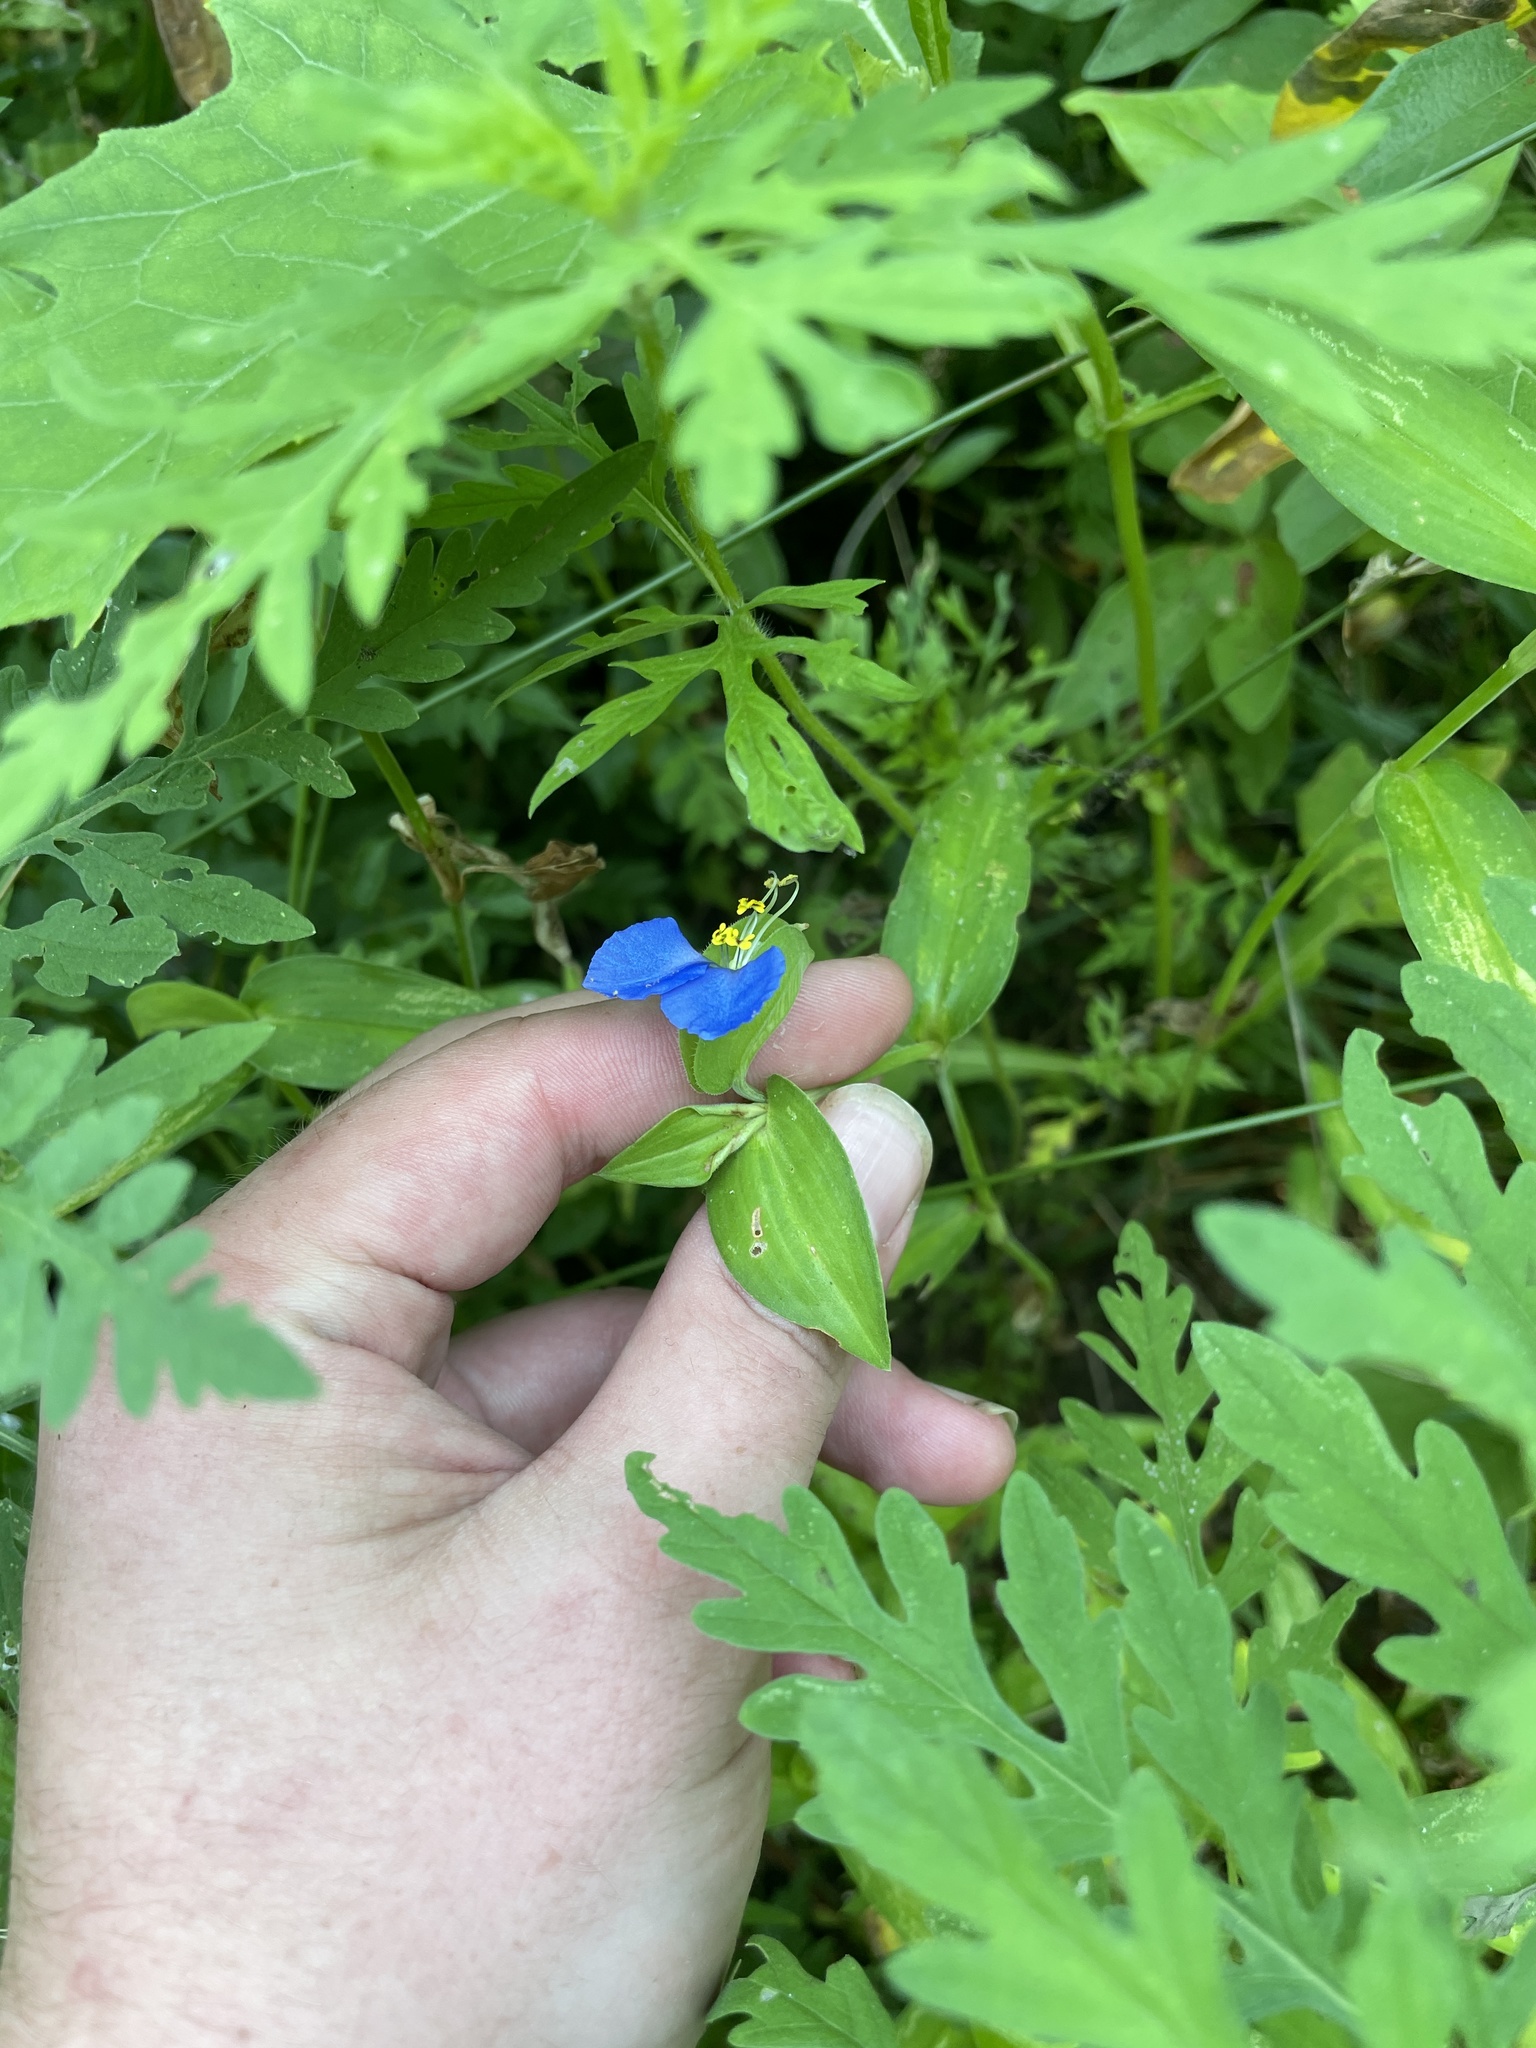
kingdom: Plantae
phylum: Tracheophyta
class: Liliopsida
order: Commelinales
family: Commelinaceae
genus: Commelina
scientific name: Commelina communis
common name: Asiatic dayflower
